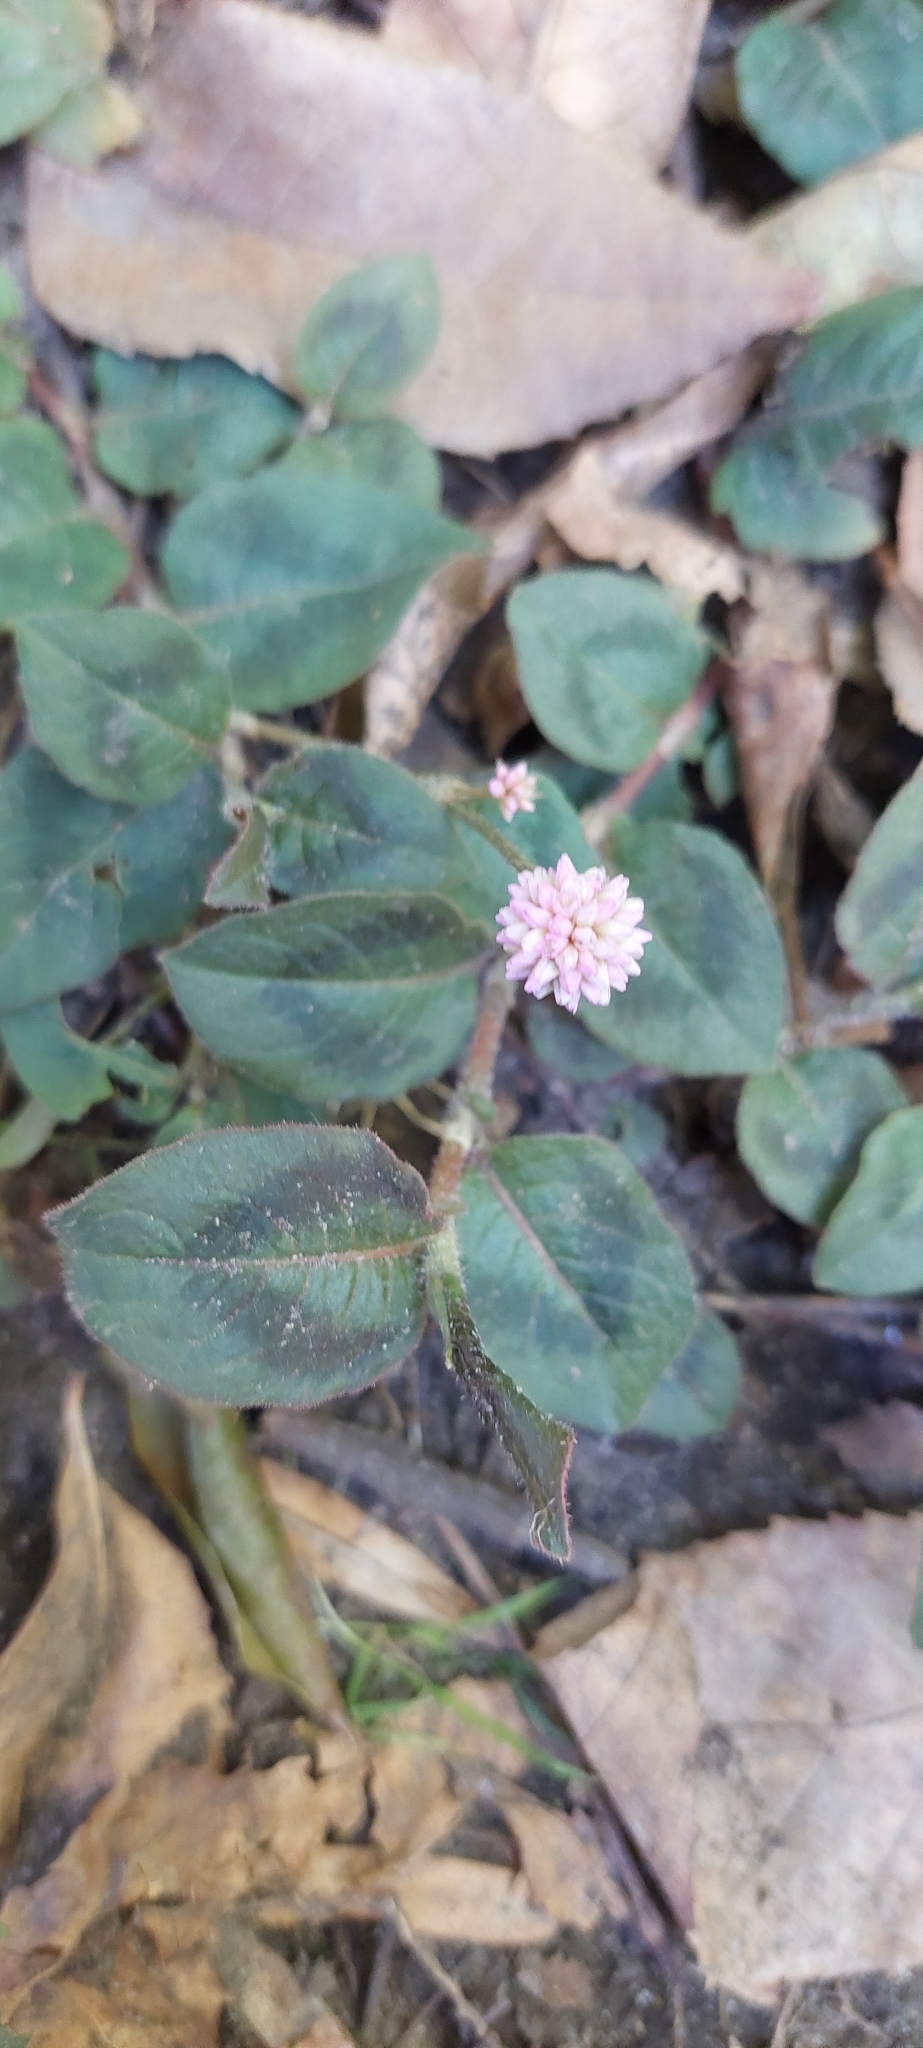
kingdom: Plantae
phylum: Tracheophyta
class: Magnoliopsida
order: Caryophyllales
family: Polygonaceae
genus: Persicaria
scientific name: Persicaria capitata
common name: Pinkhead smartweed
